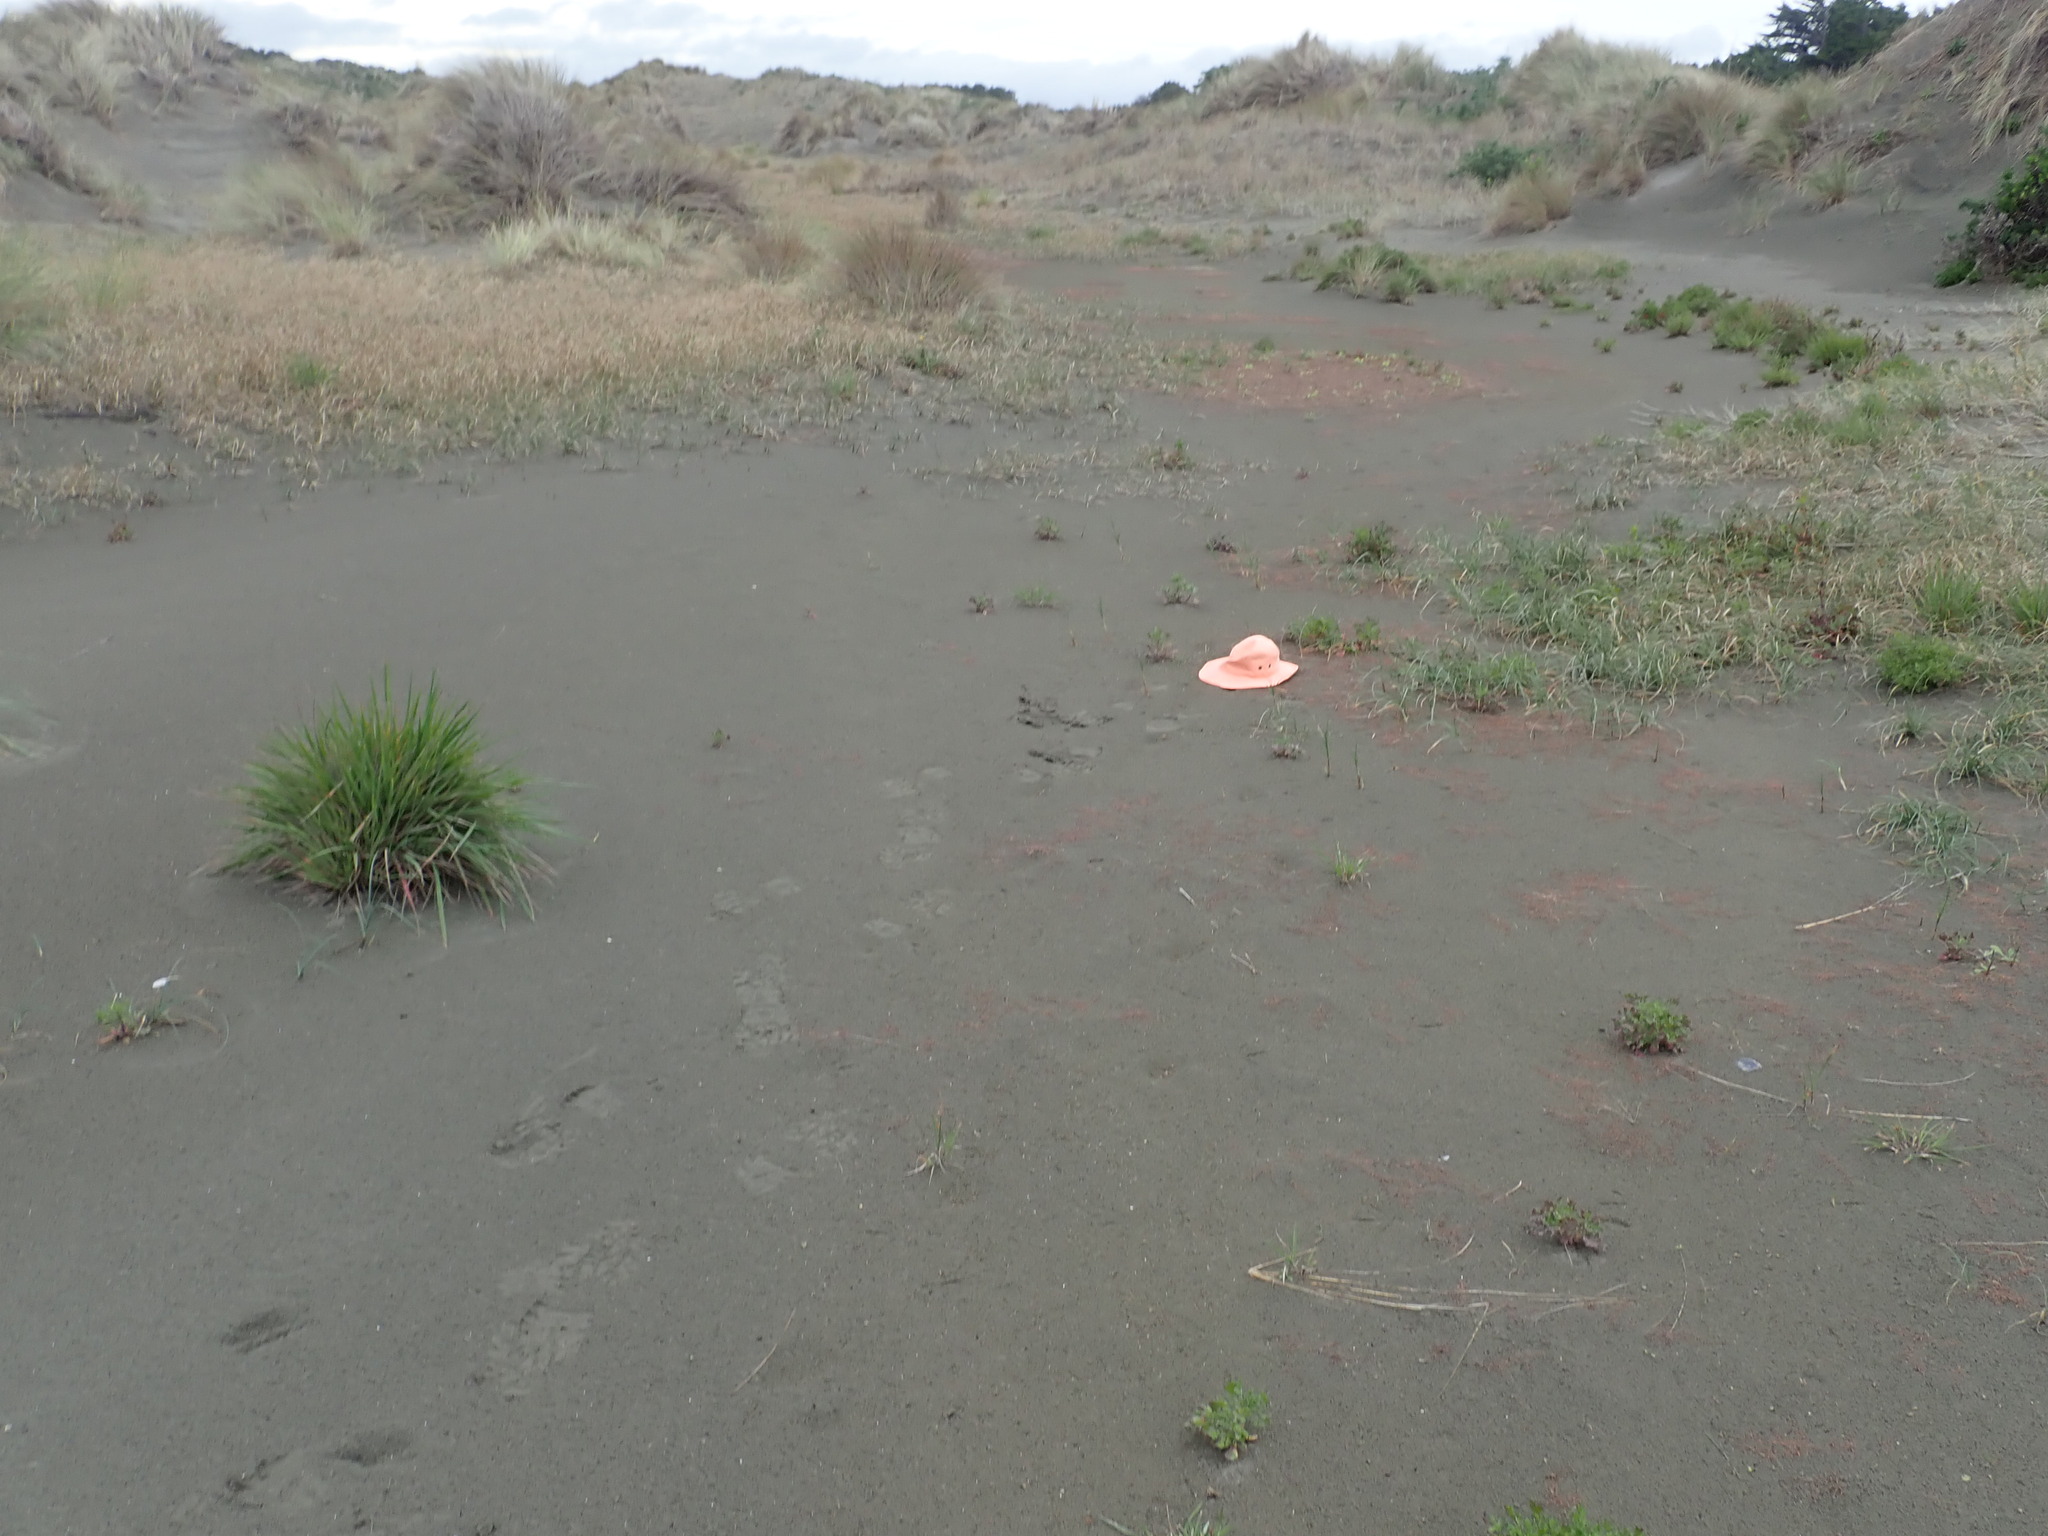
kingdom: Plantae
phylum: Tracheophyta
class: Magnoliopsida
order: Lamiales
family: Scrophulariaceae
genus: Limosella
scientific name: Limosella australis
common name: Welsh mudwort
